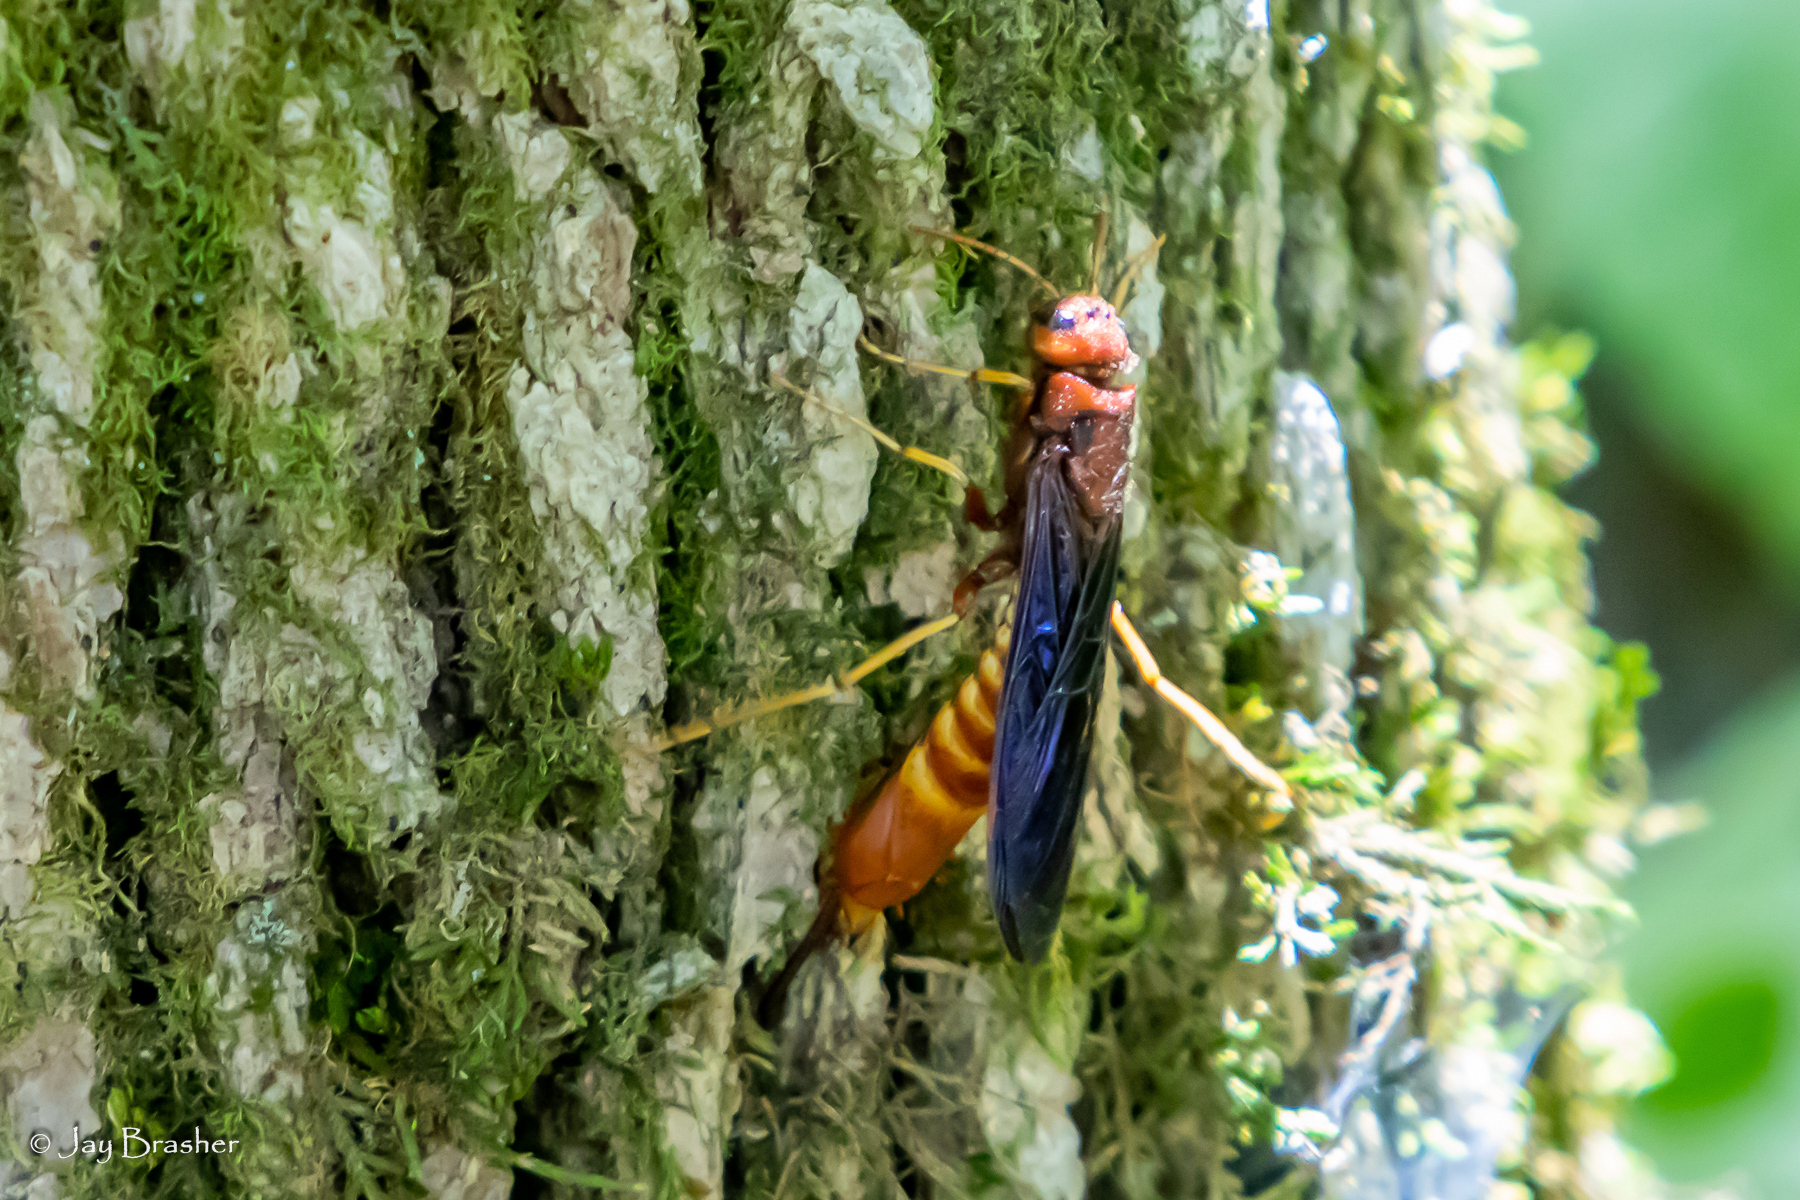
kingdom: Animalia
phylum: Arthropoda
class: Insecta
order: Hymenoptera
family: Siricidae
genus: Tremex
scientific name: Tremex columba
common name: Wasp
